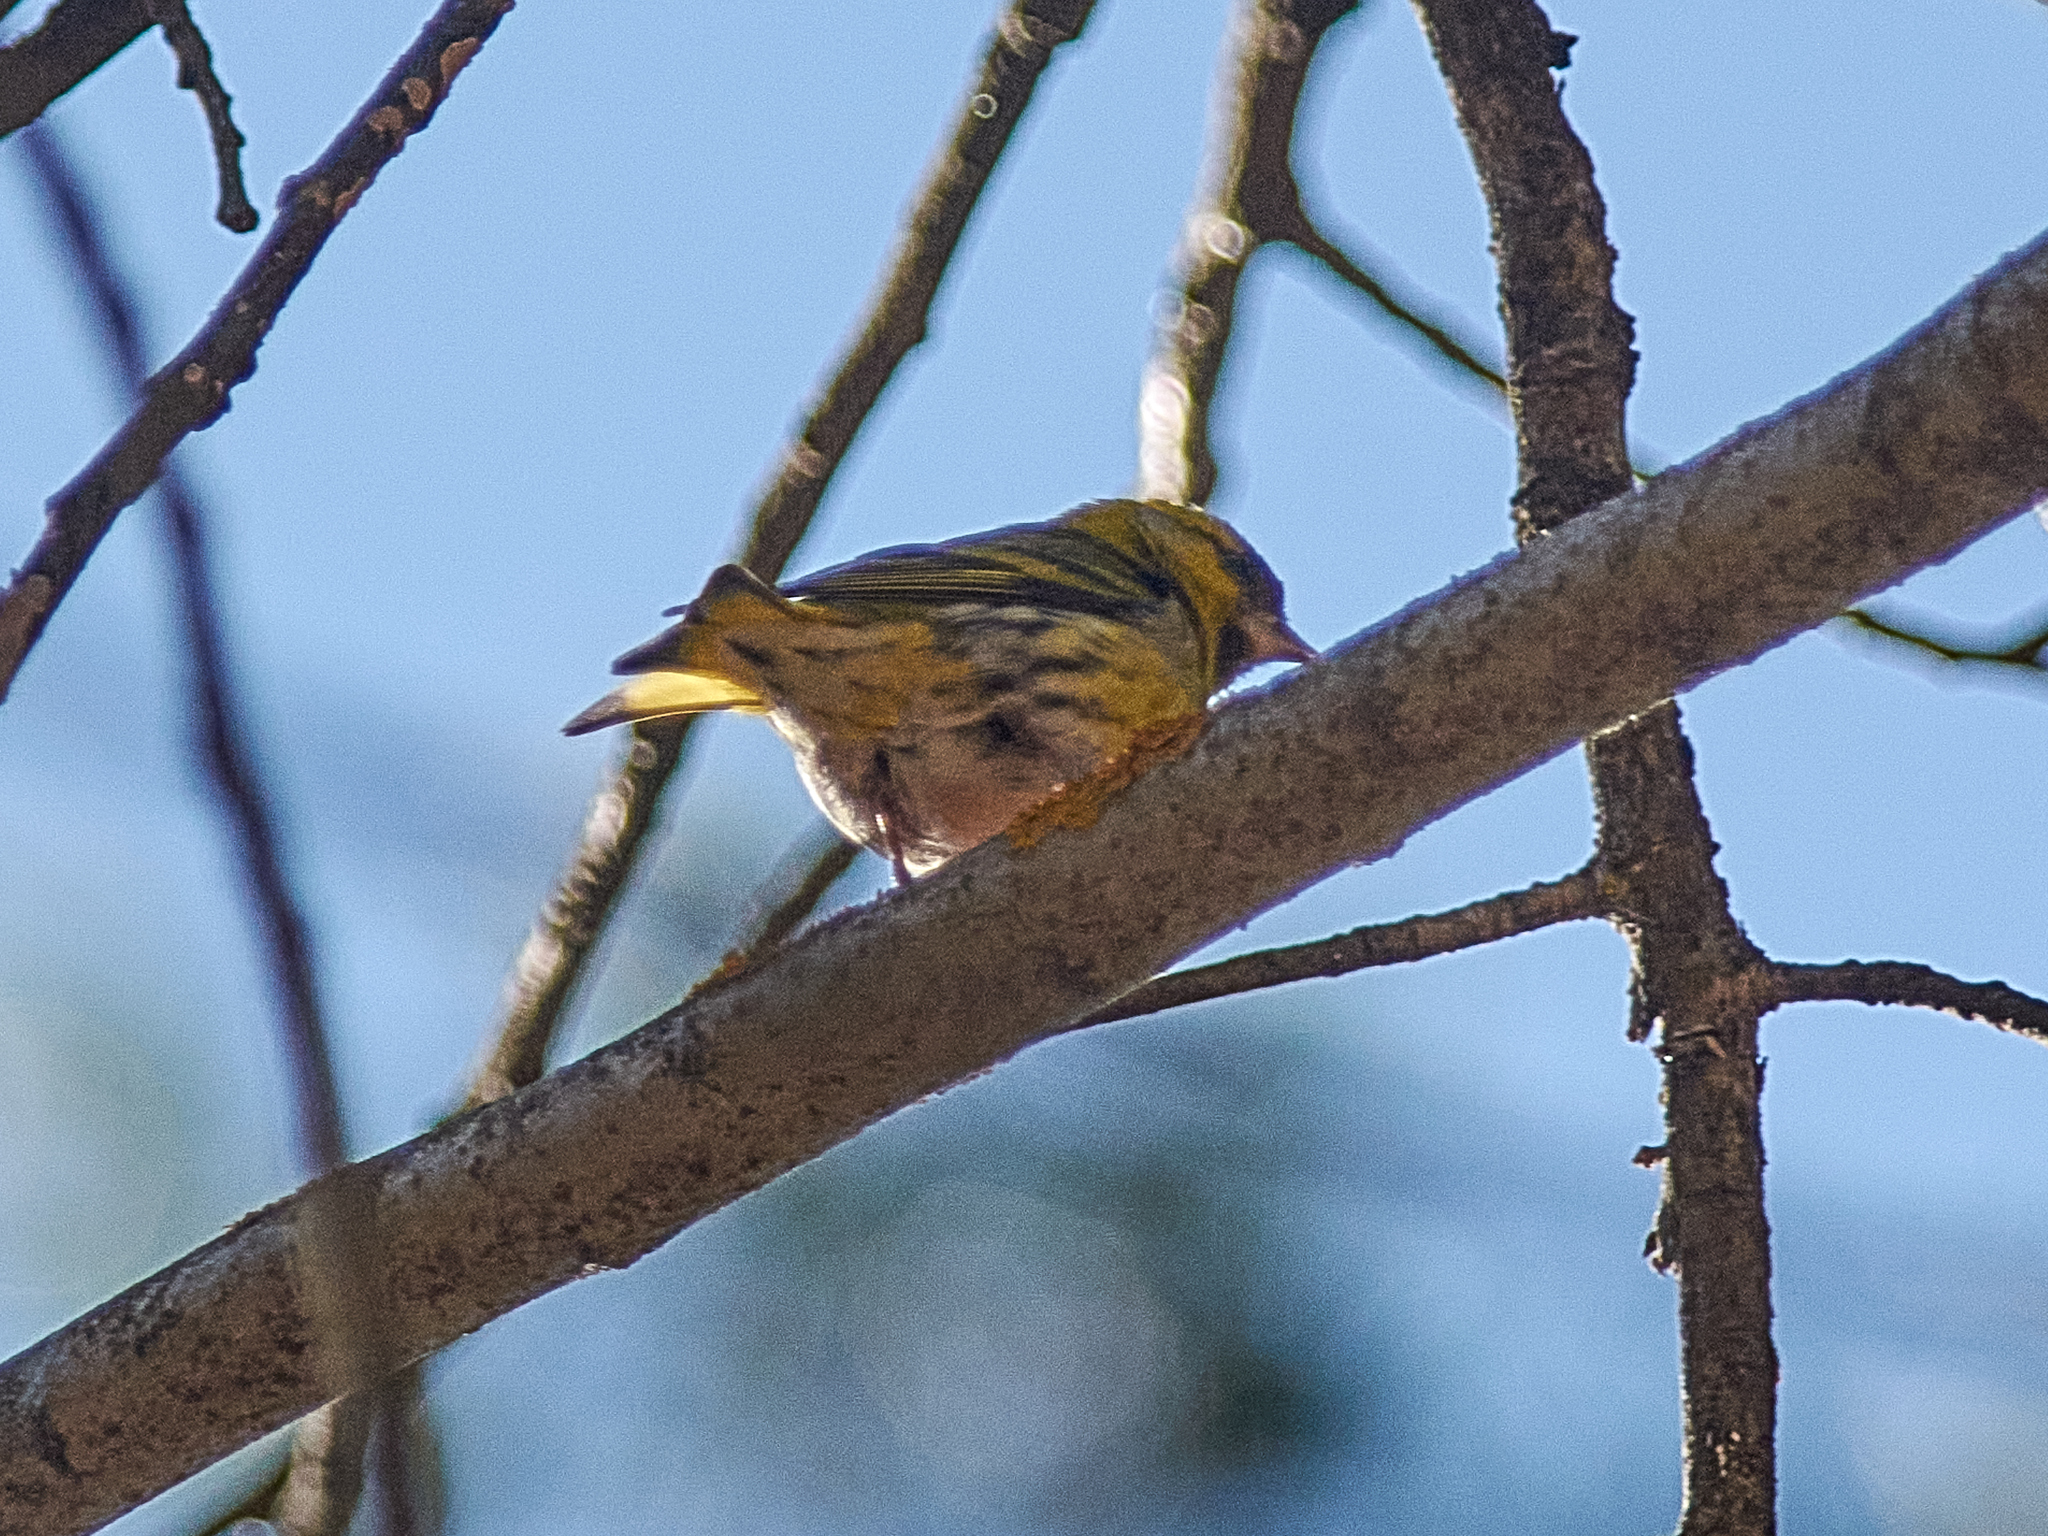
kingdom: Animalia
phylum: Chordata
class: Aves
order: Passeriformes
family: Fringillidae
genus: Spinus
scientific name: Spinus spinus
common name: Eurasian siskin
